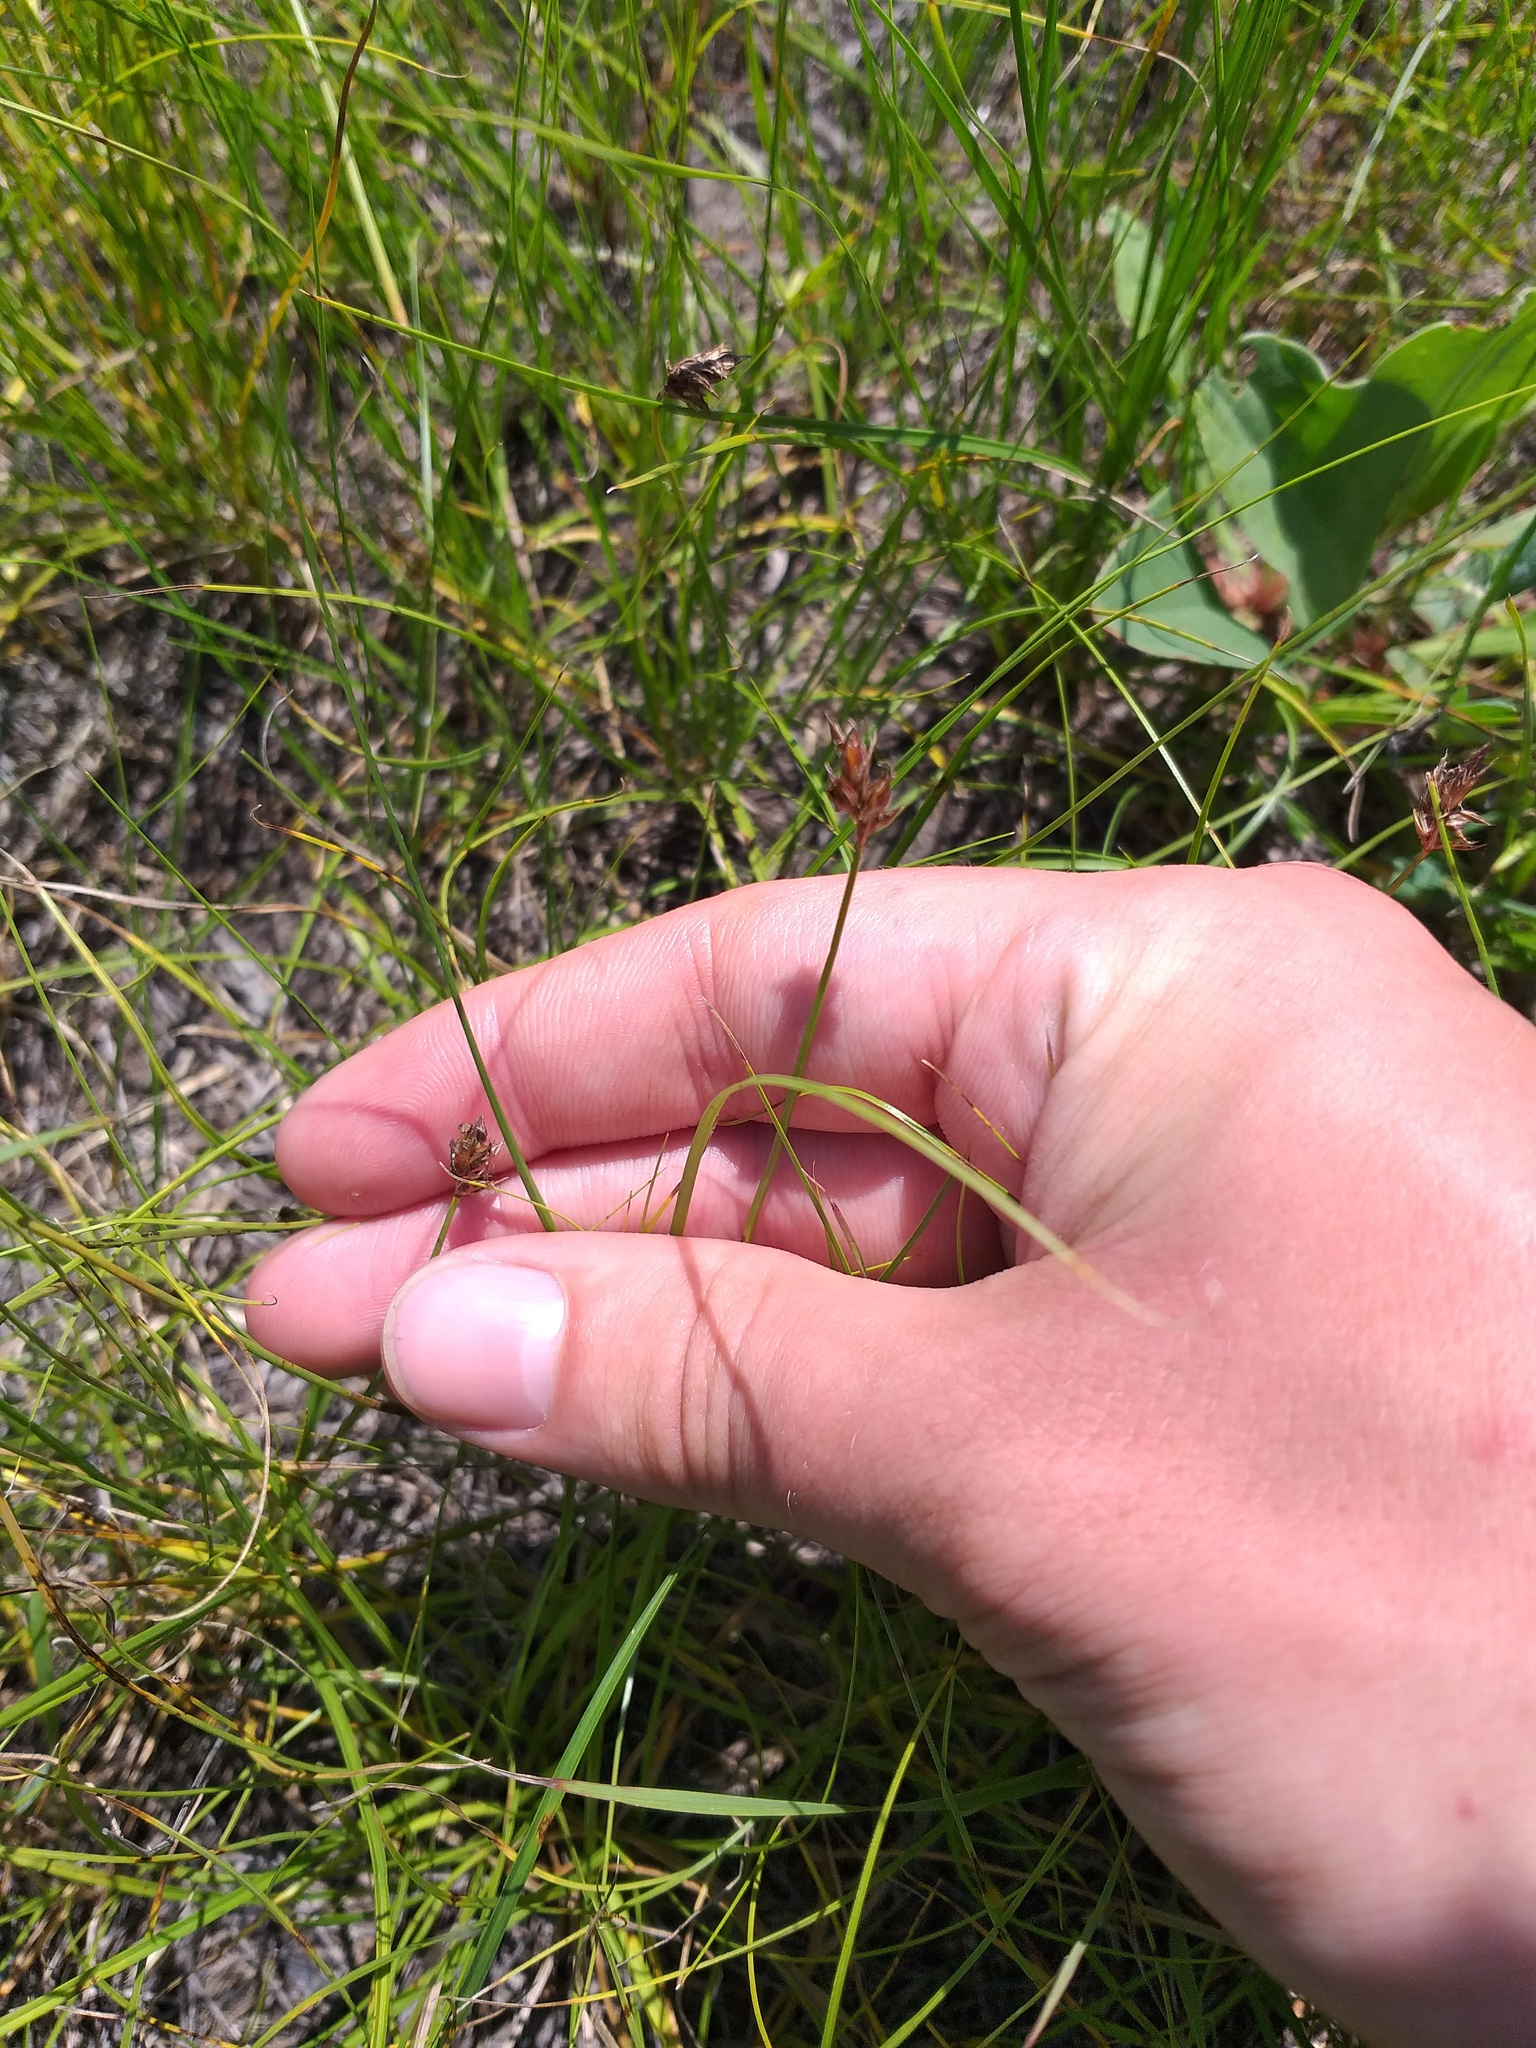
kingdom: Plantae
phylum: Tracheophyta
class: Liliopsida
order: Poales
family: Cyperaceae
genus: Carex
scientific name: Carex stenophylla
